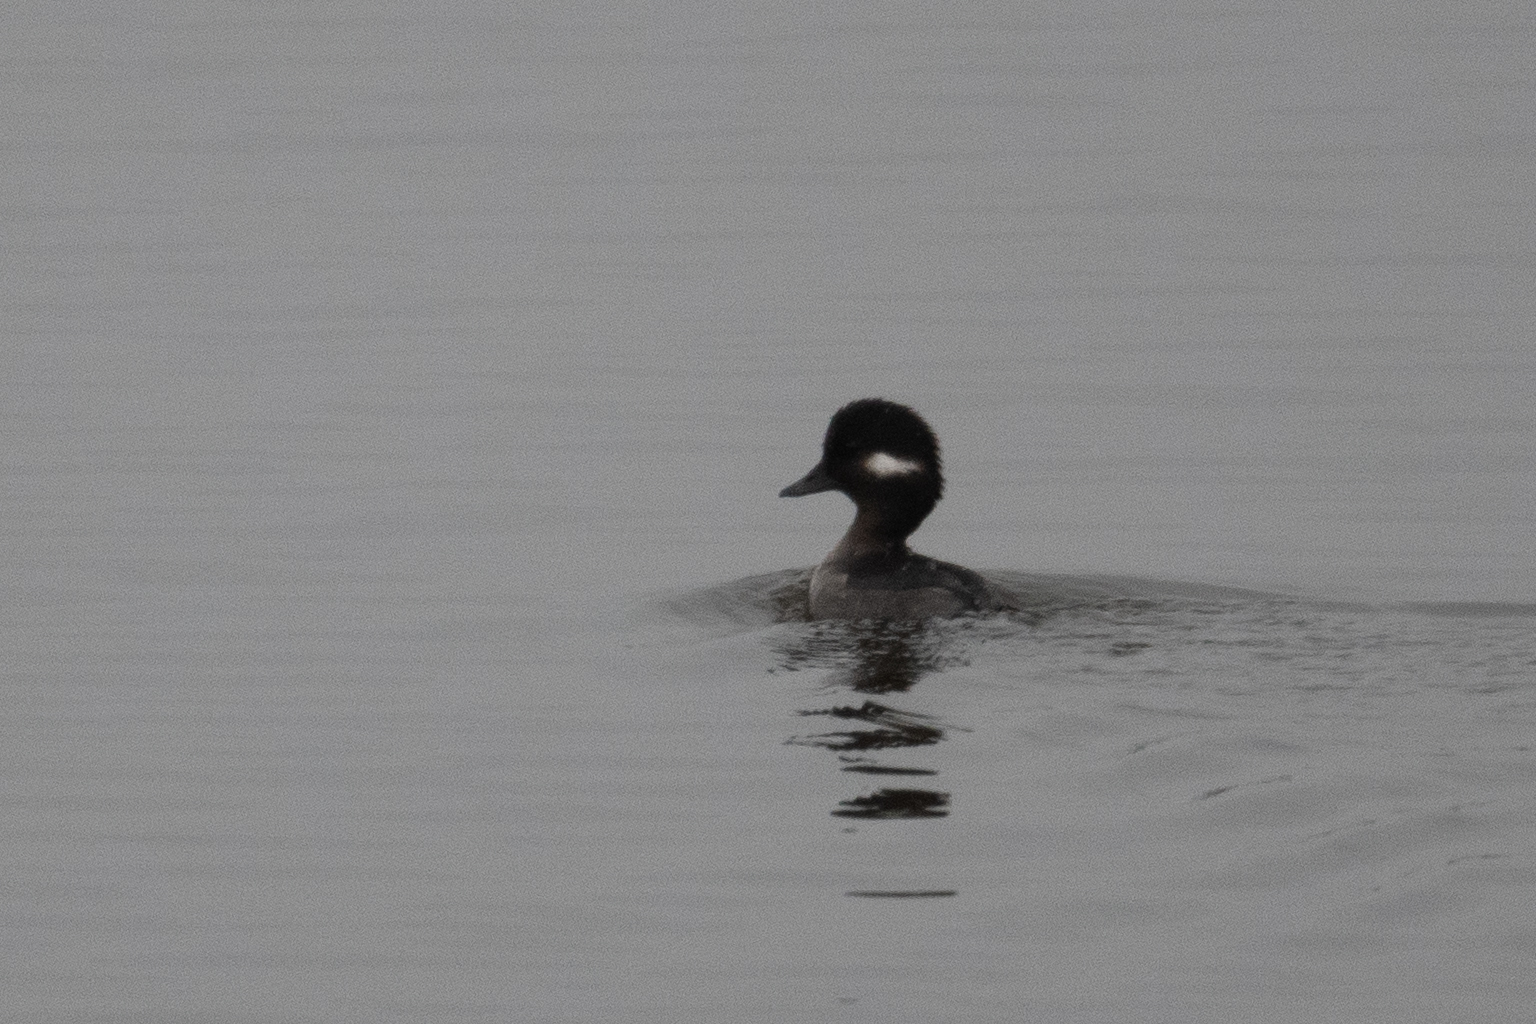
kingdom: Animalia
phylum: Chordata
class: Aves
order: Anseriformes
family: Anatidae
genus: Bucephala
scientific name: Bucephala albeola
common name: Bufflehead
